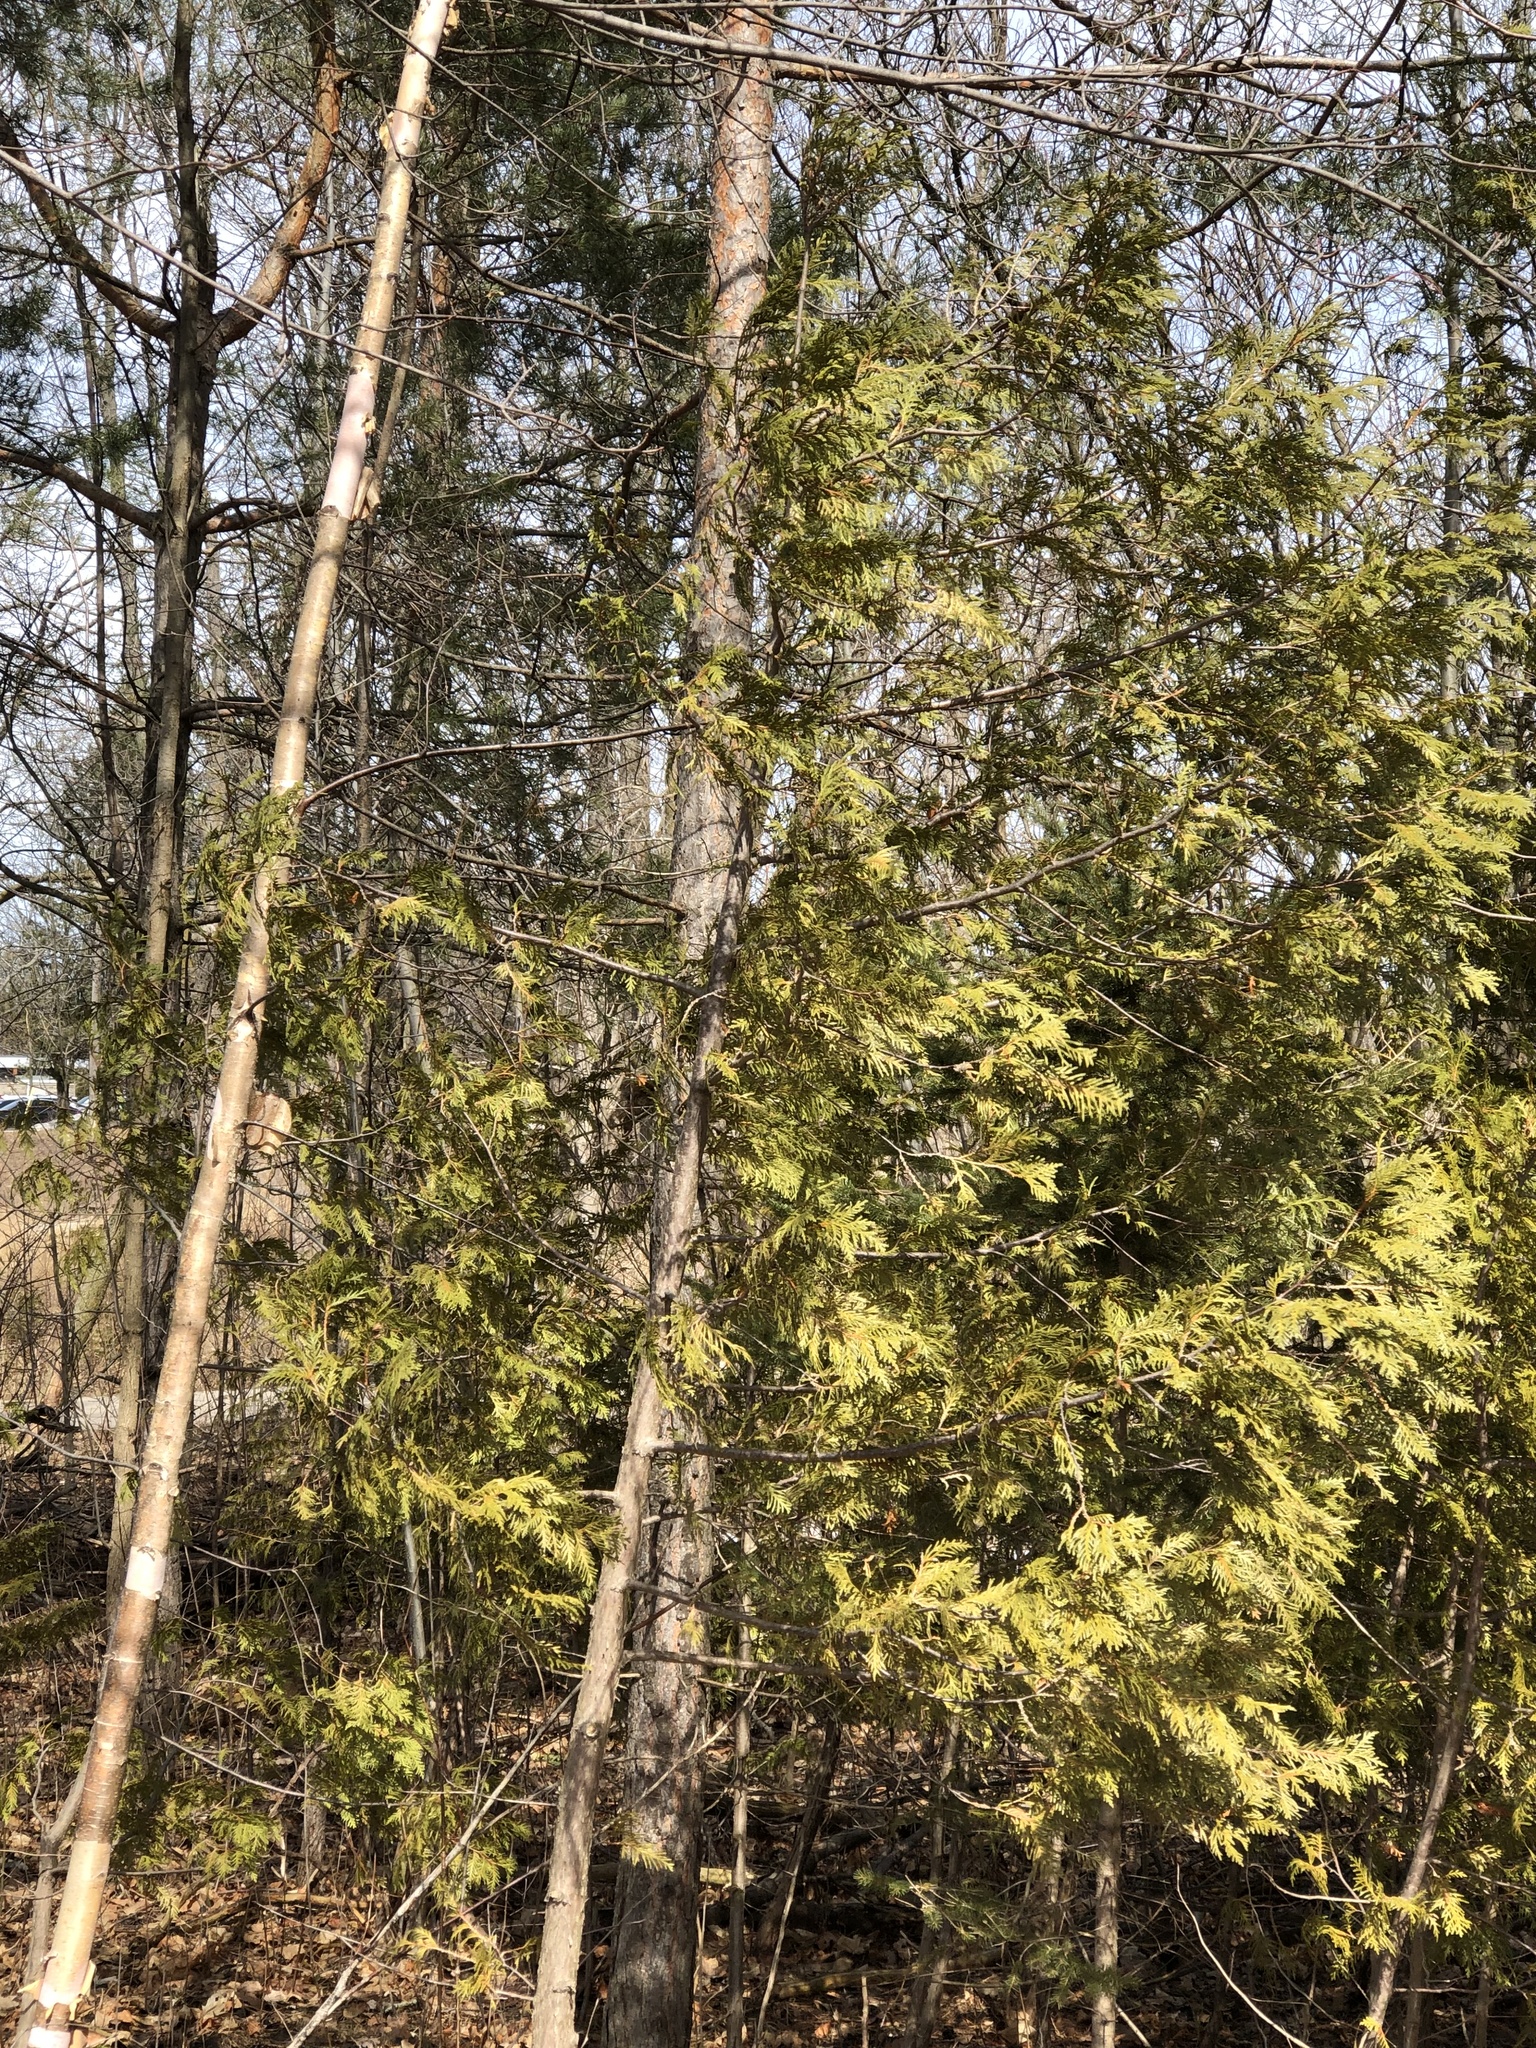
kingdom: Plantae
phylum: Tracheophyta
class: Pinopsida
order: Pinales
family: Cupressaceae
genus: Thuja
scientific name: Thuja occidentalis
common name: Northern white-cedar
